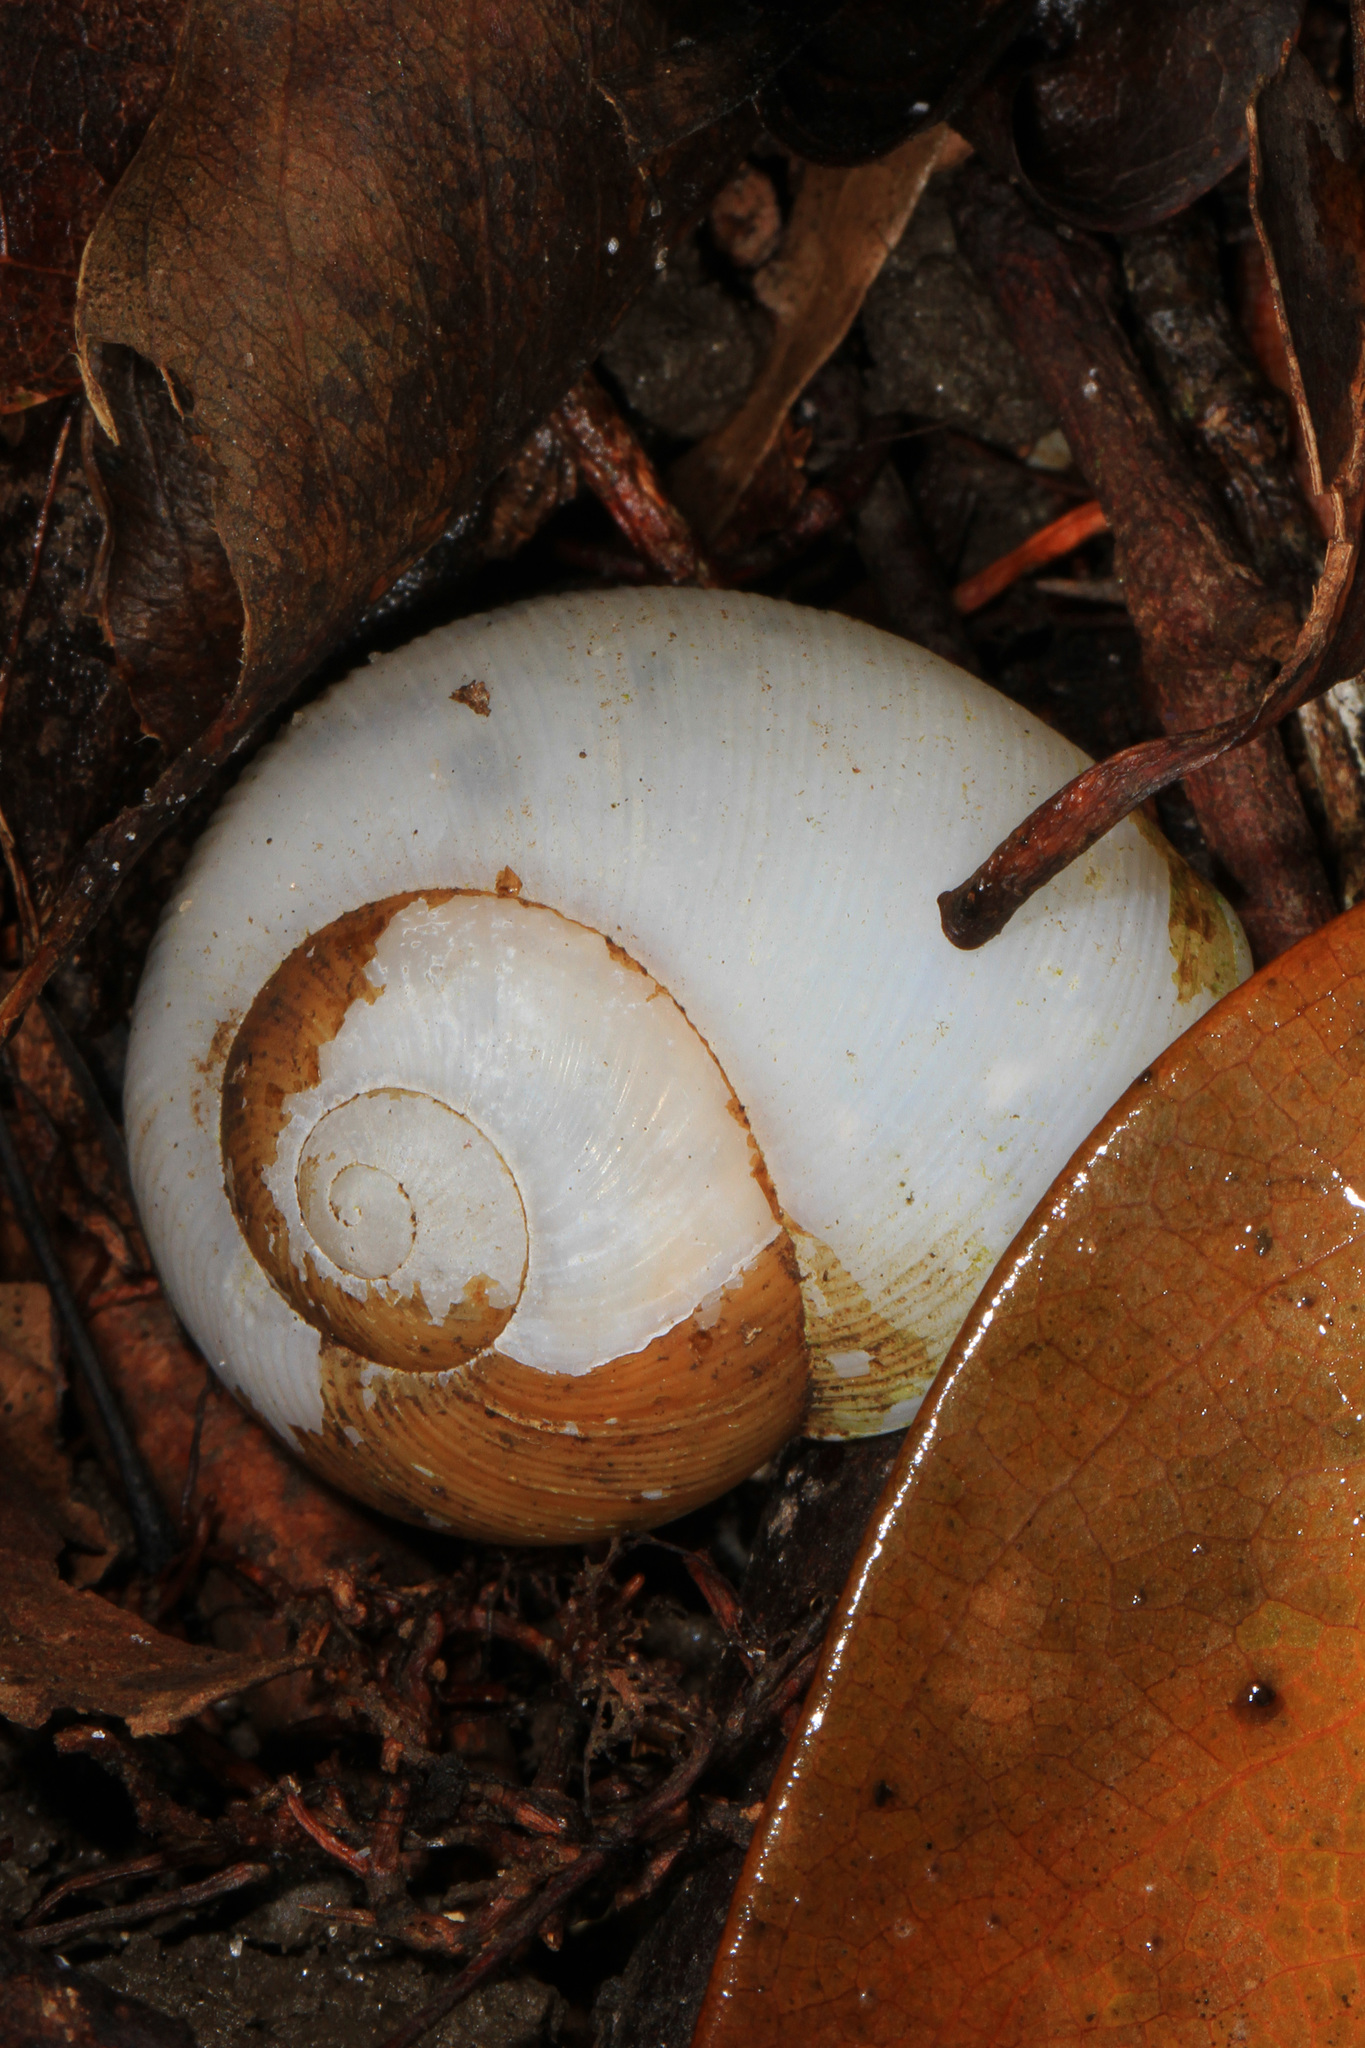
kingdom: Animalia
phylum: Mollusca
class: Gastropoda
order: Stylommatophora
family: Zachrysiidae
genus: Zachrysia
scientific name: Zachrysia provisoria
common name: Garden zachrysia
